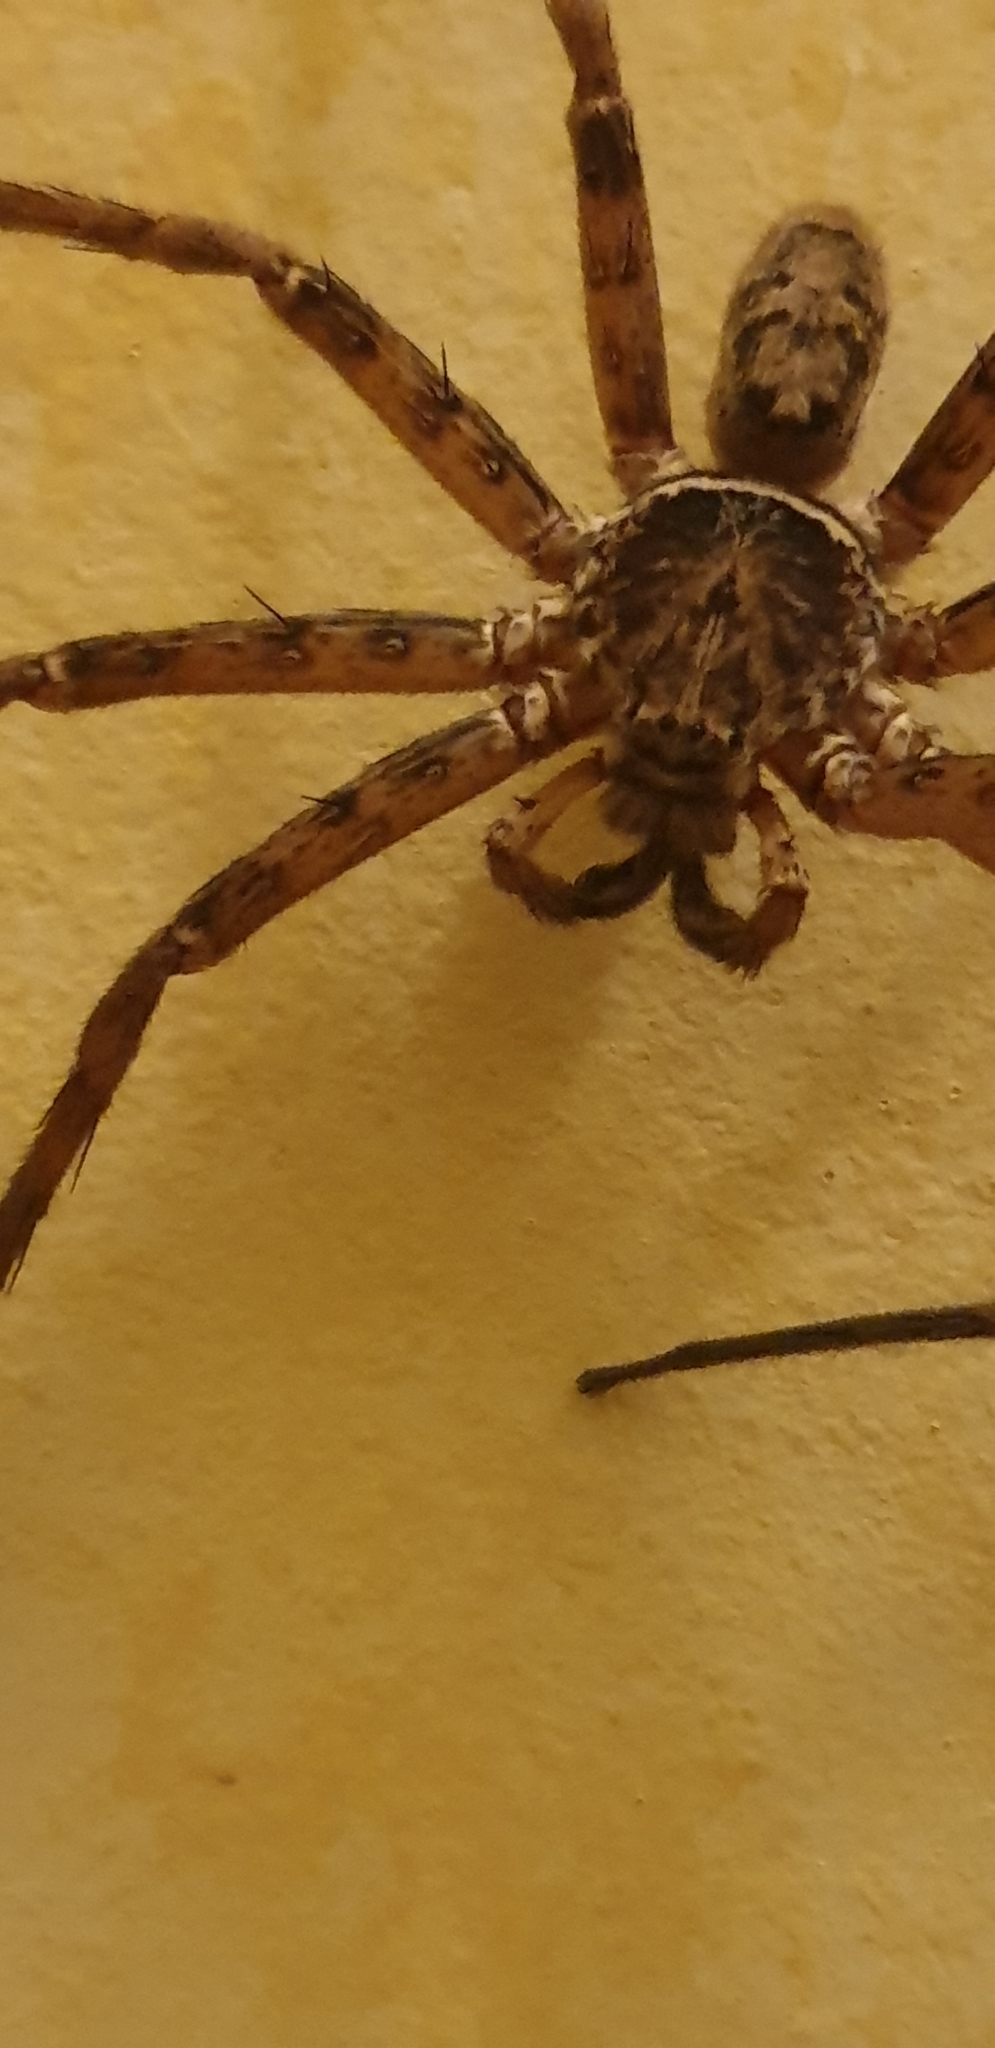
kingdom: Animalia
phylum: Arthropoda
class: Arachnida
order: Araneae
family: Sparassidae
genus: Heteropoda
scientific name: Heteropoda jugulans
